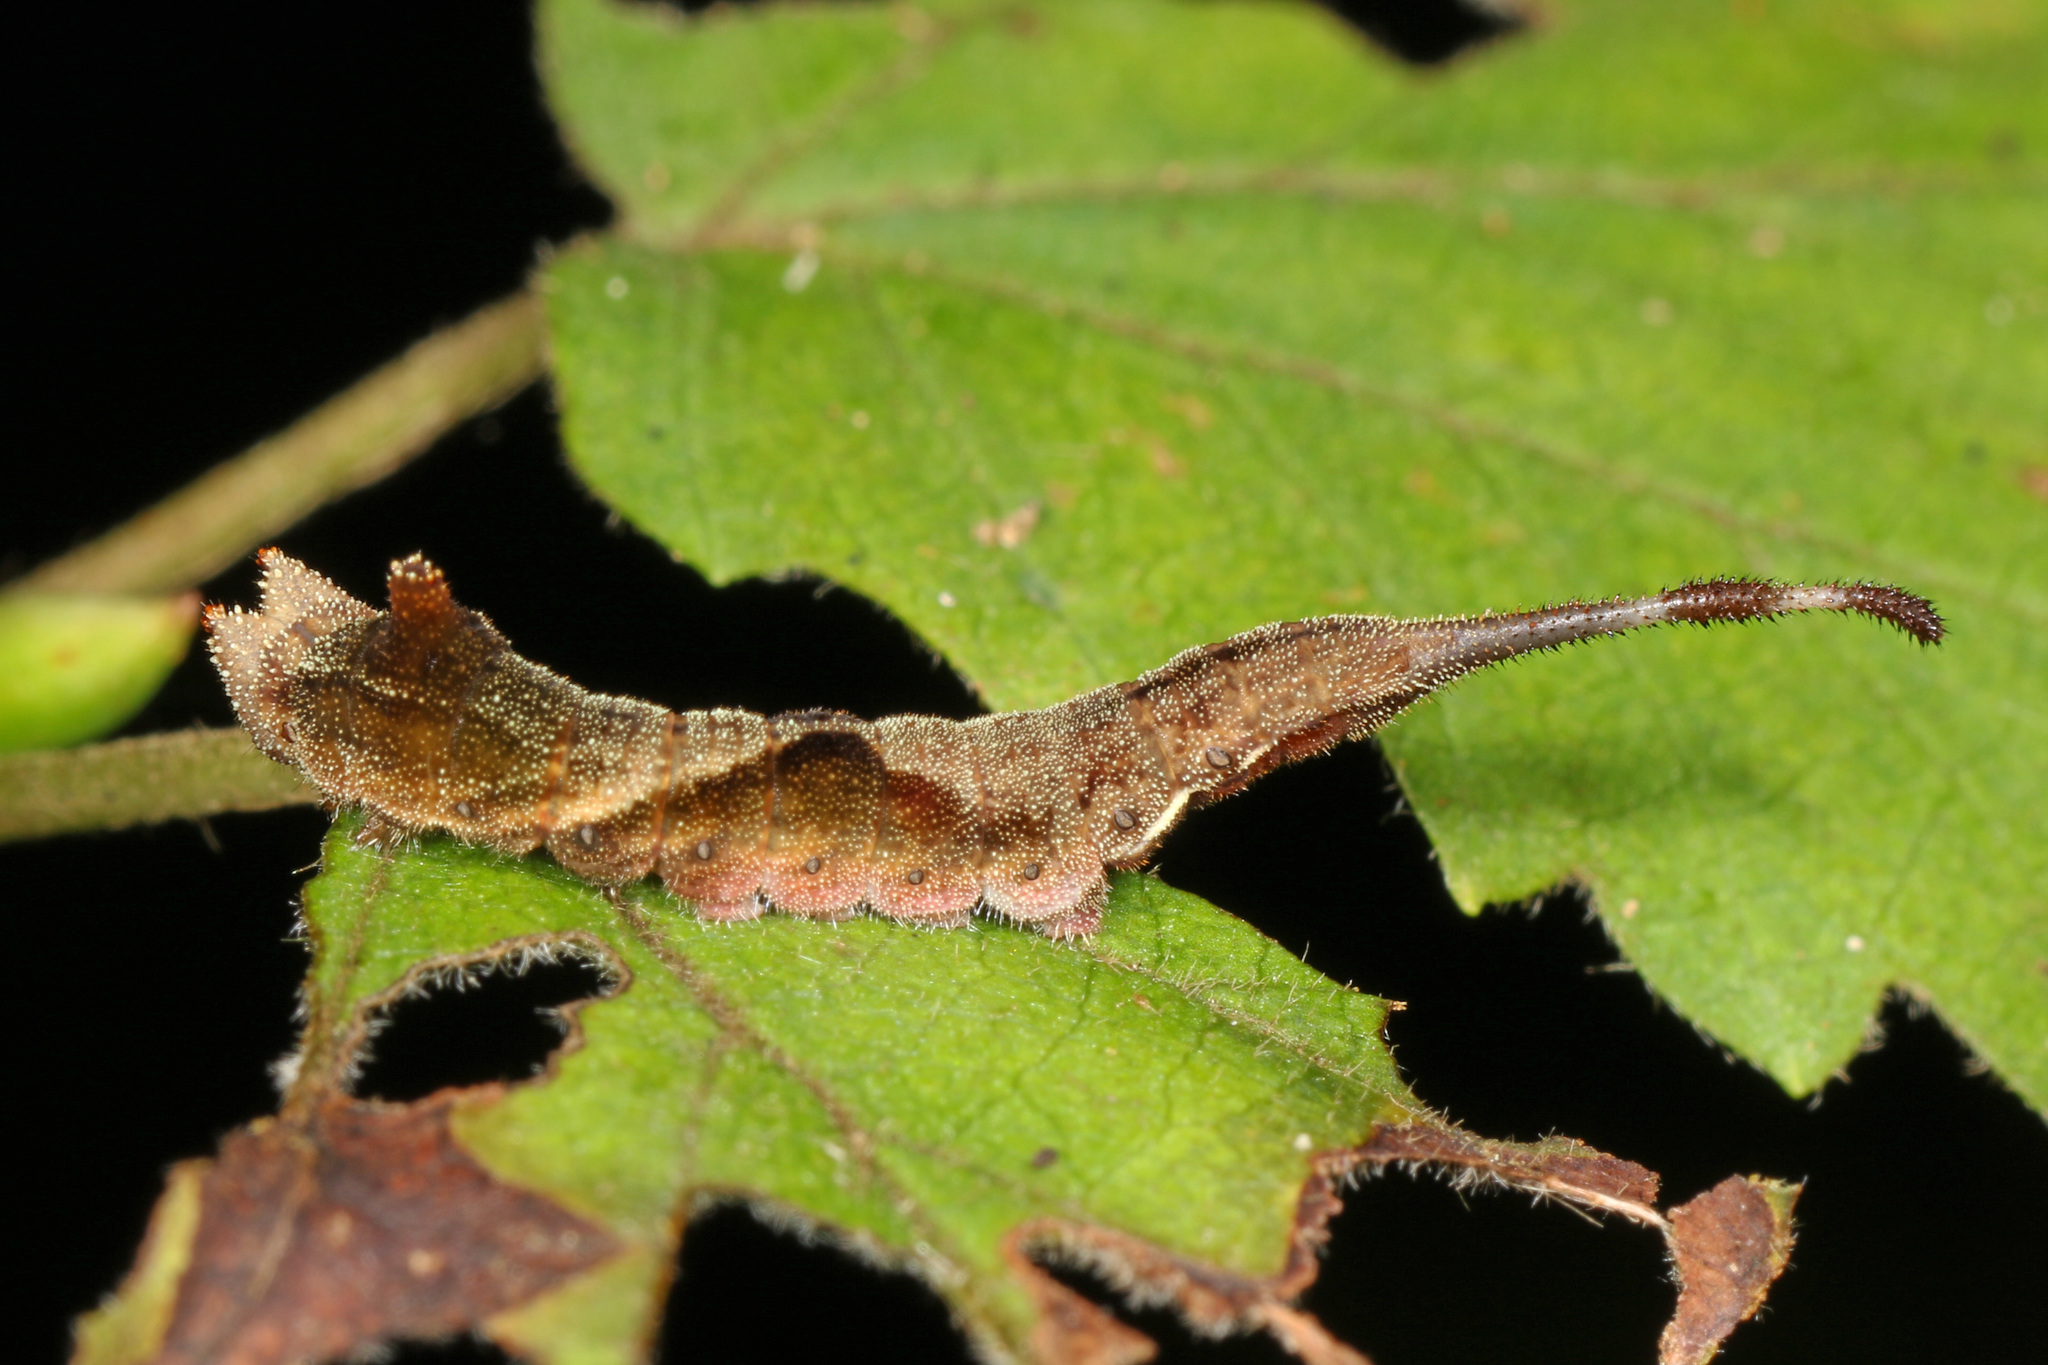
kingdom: Animalia
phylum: Arthropoda
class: Insecta
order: Lepidoptera
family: Drepanidae
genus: Oreta
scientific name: Oreta rosea
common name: Rose hooktip
